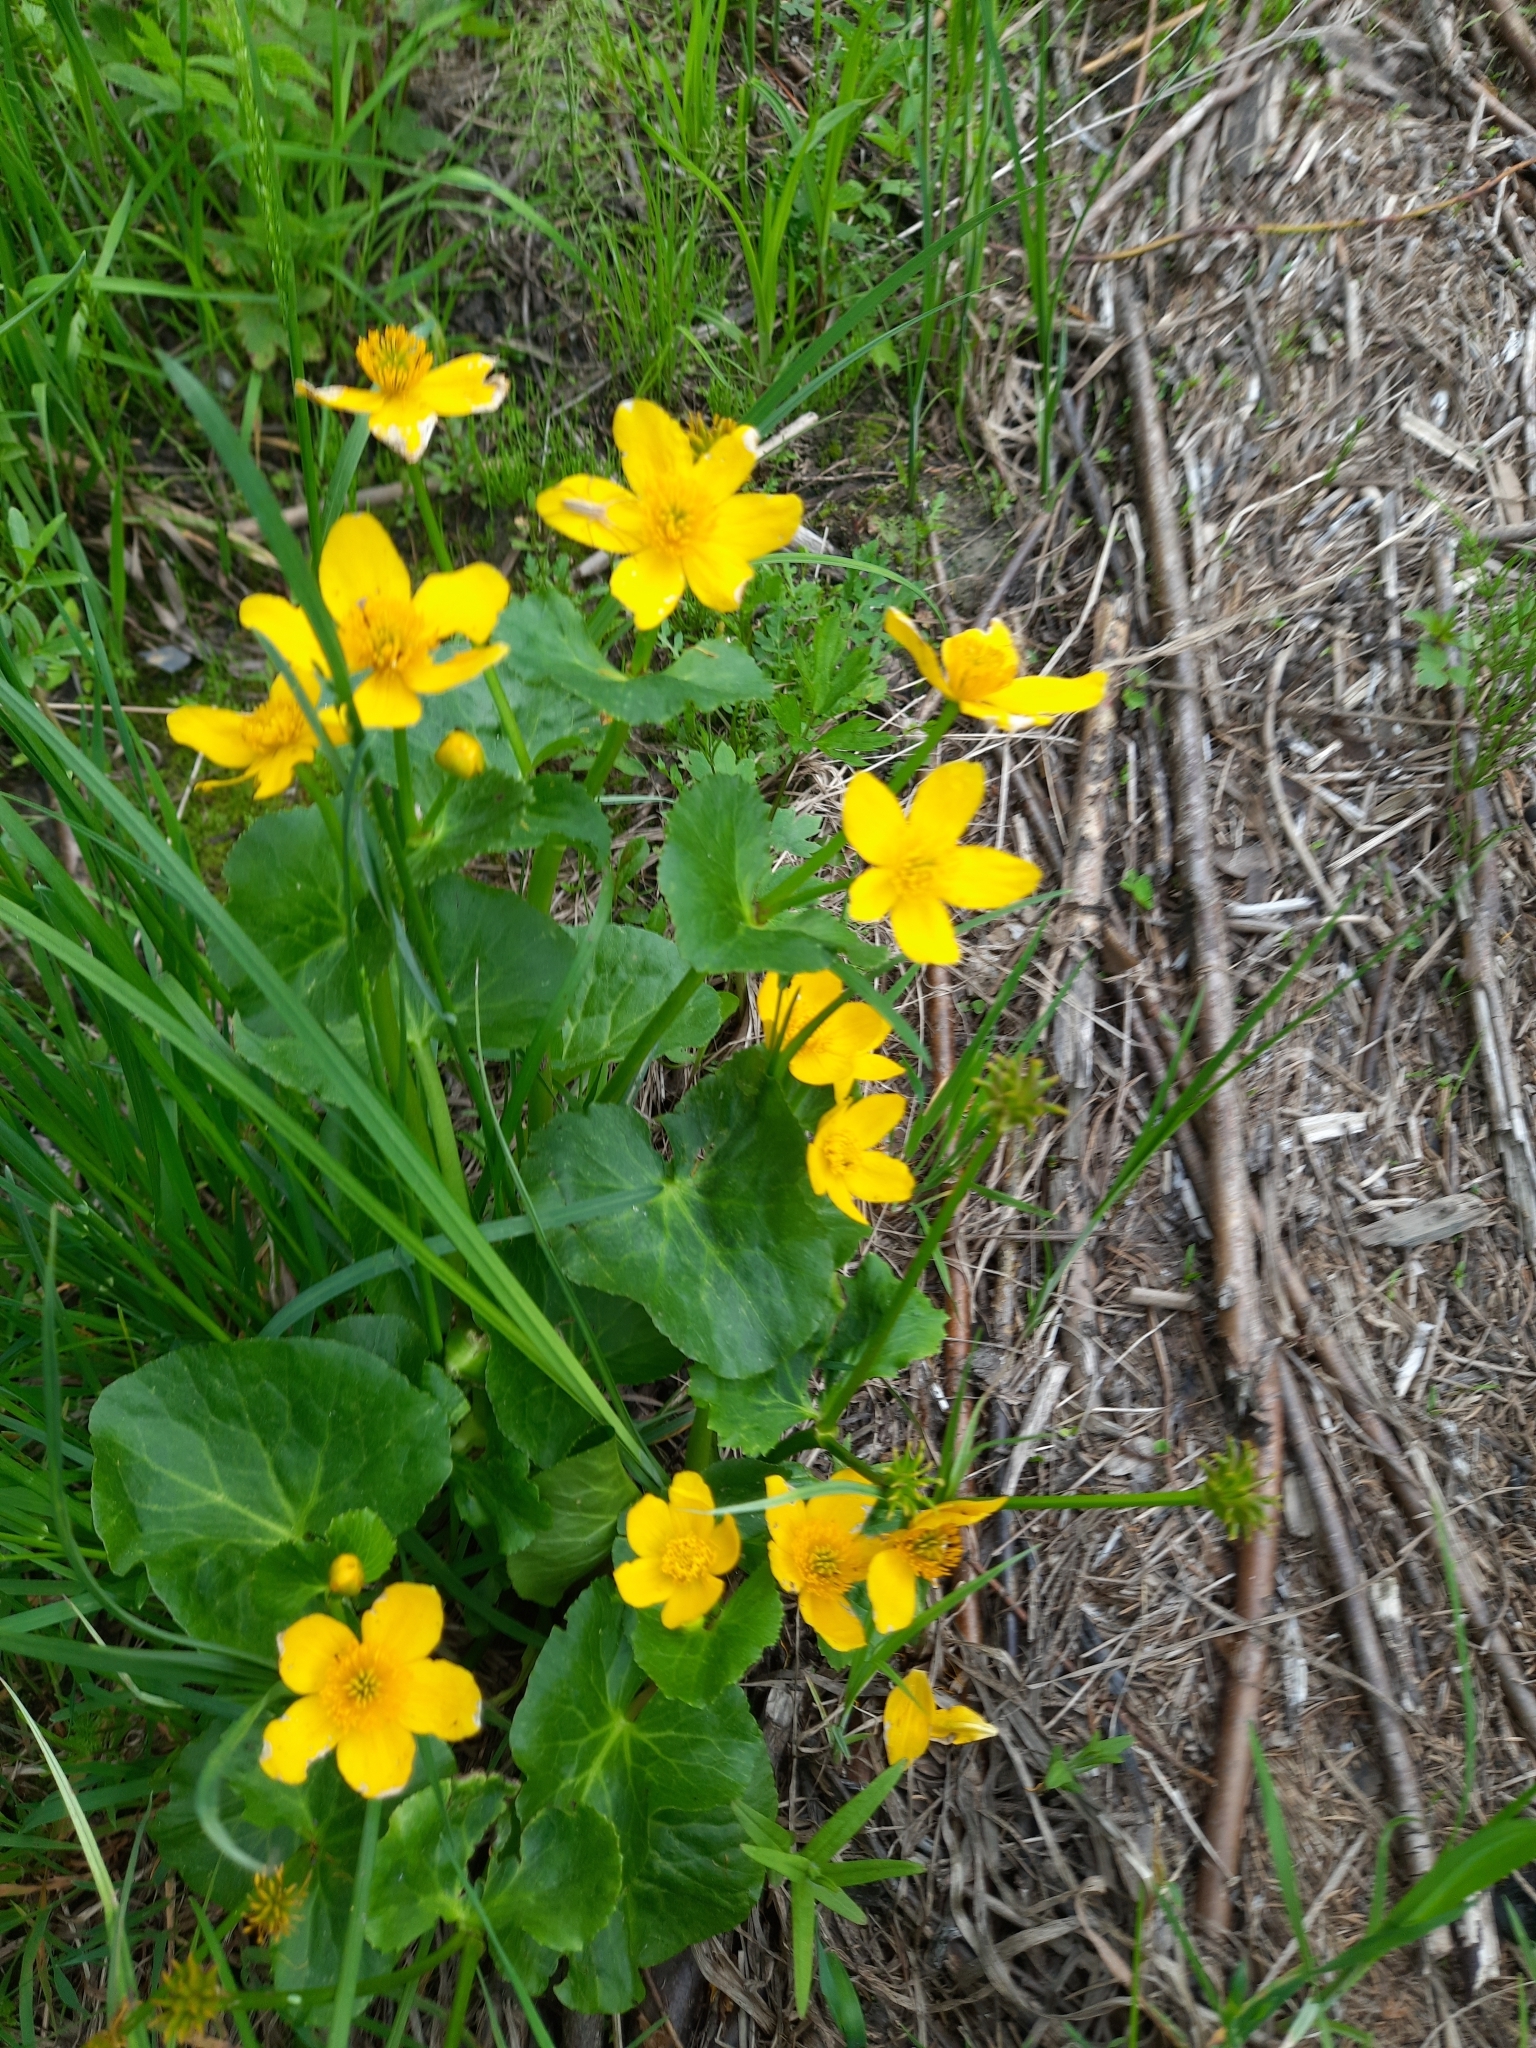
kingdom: Plantae
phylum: Tracheophyta
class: Magnoliopsida
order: Ranunculales
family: Ranunculaceae
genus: Caltha
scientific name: Caltha palustris
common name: Marsh marigold
